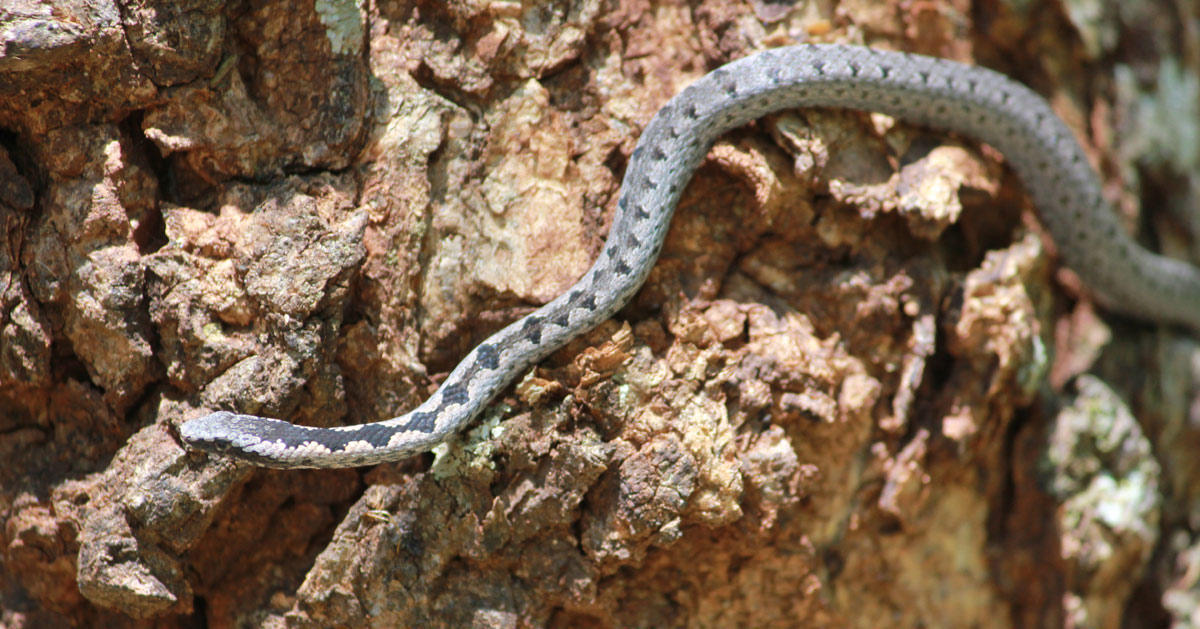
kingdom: Animalia
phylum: Chordata
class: Squamata
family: Psammophiidae
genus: Hemirhagerrhis
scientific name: Hemirhagerrhis nototaenia
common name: Mopane snake
